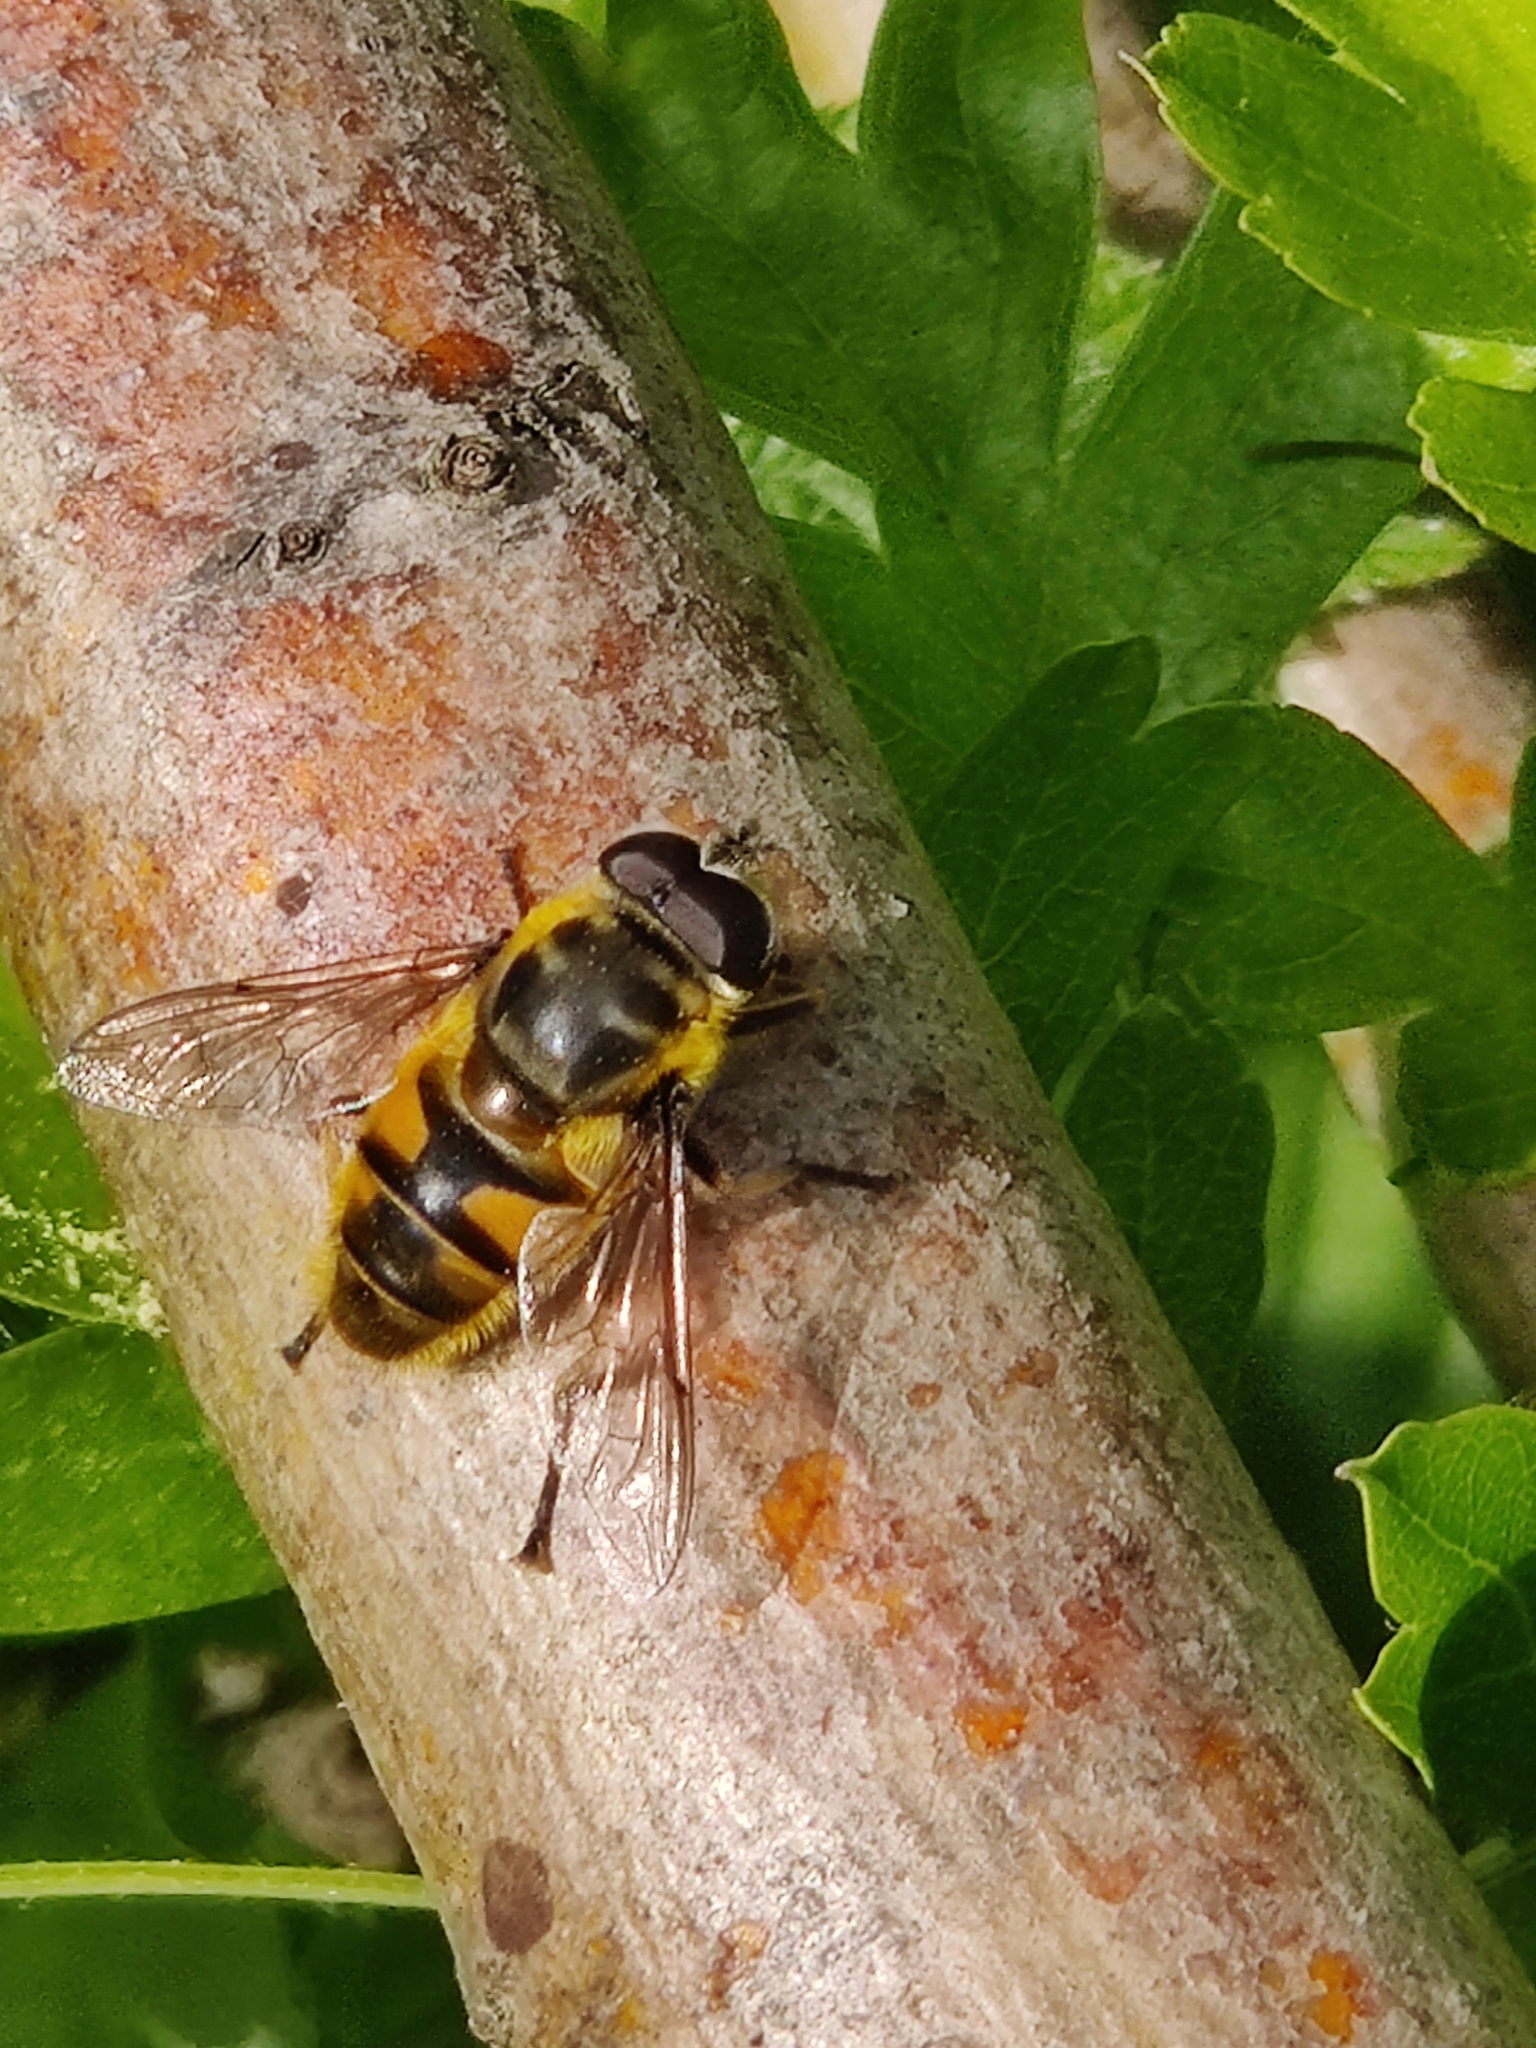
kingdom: Animalia
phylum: Arthropoda
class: Insecta
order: Diptera
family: Syrphidae
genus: Myathropa
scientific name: Myathropa florea
